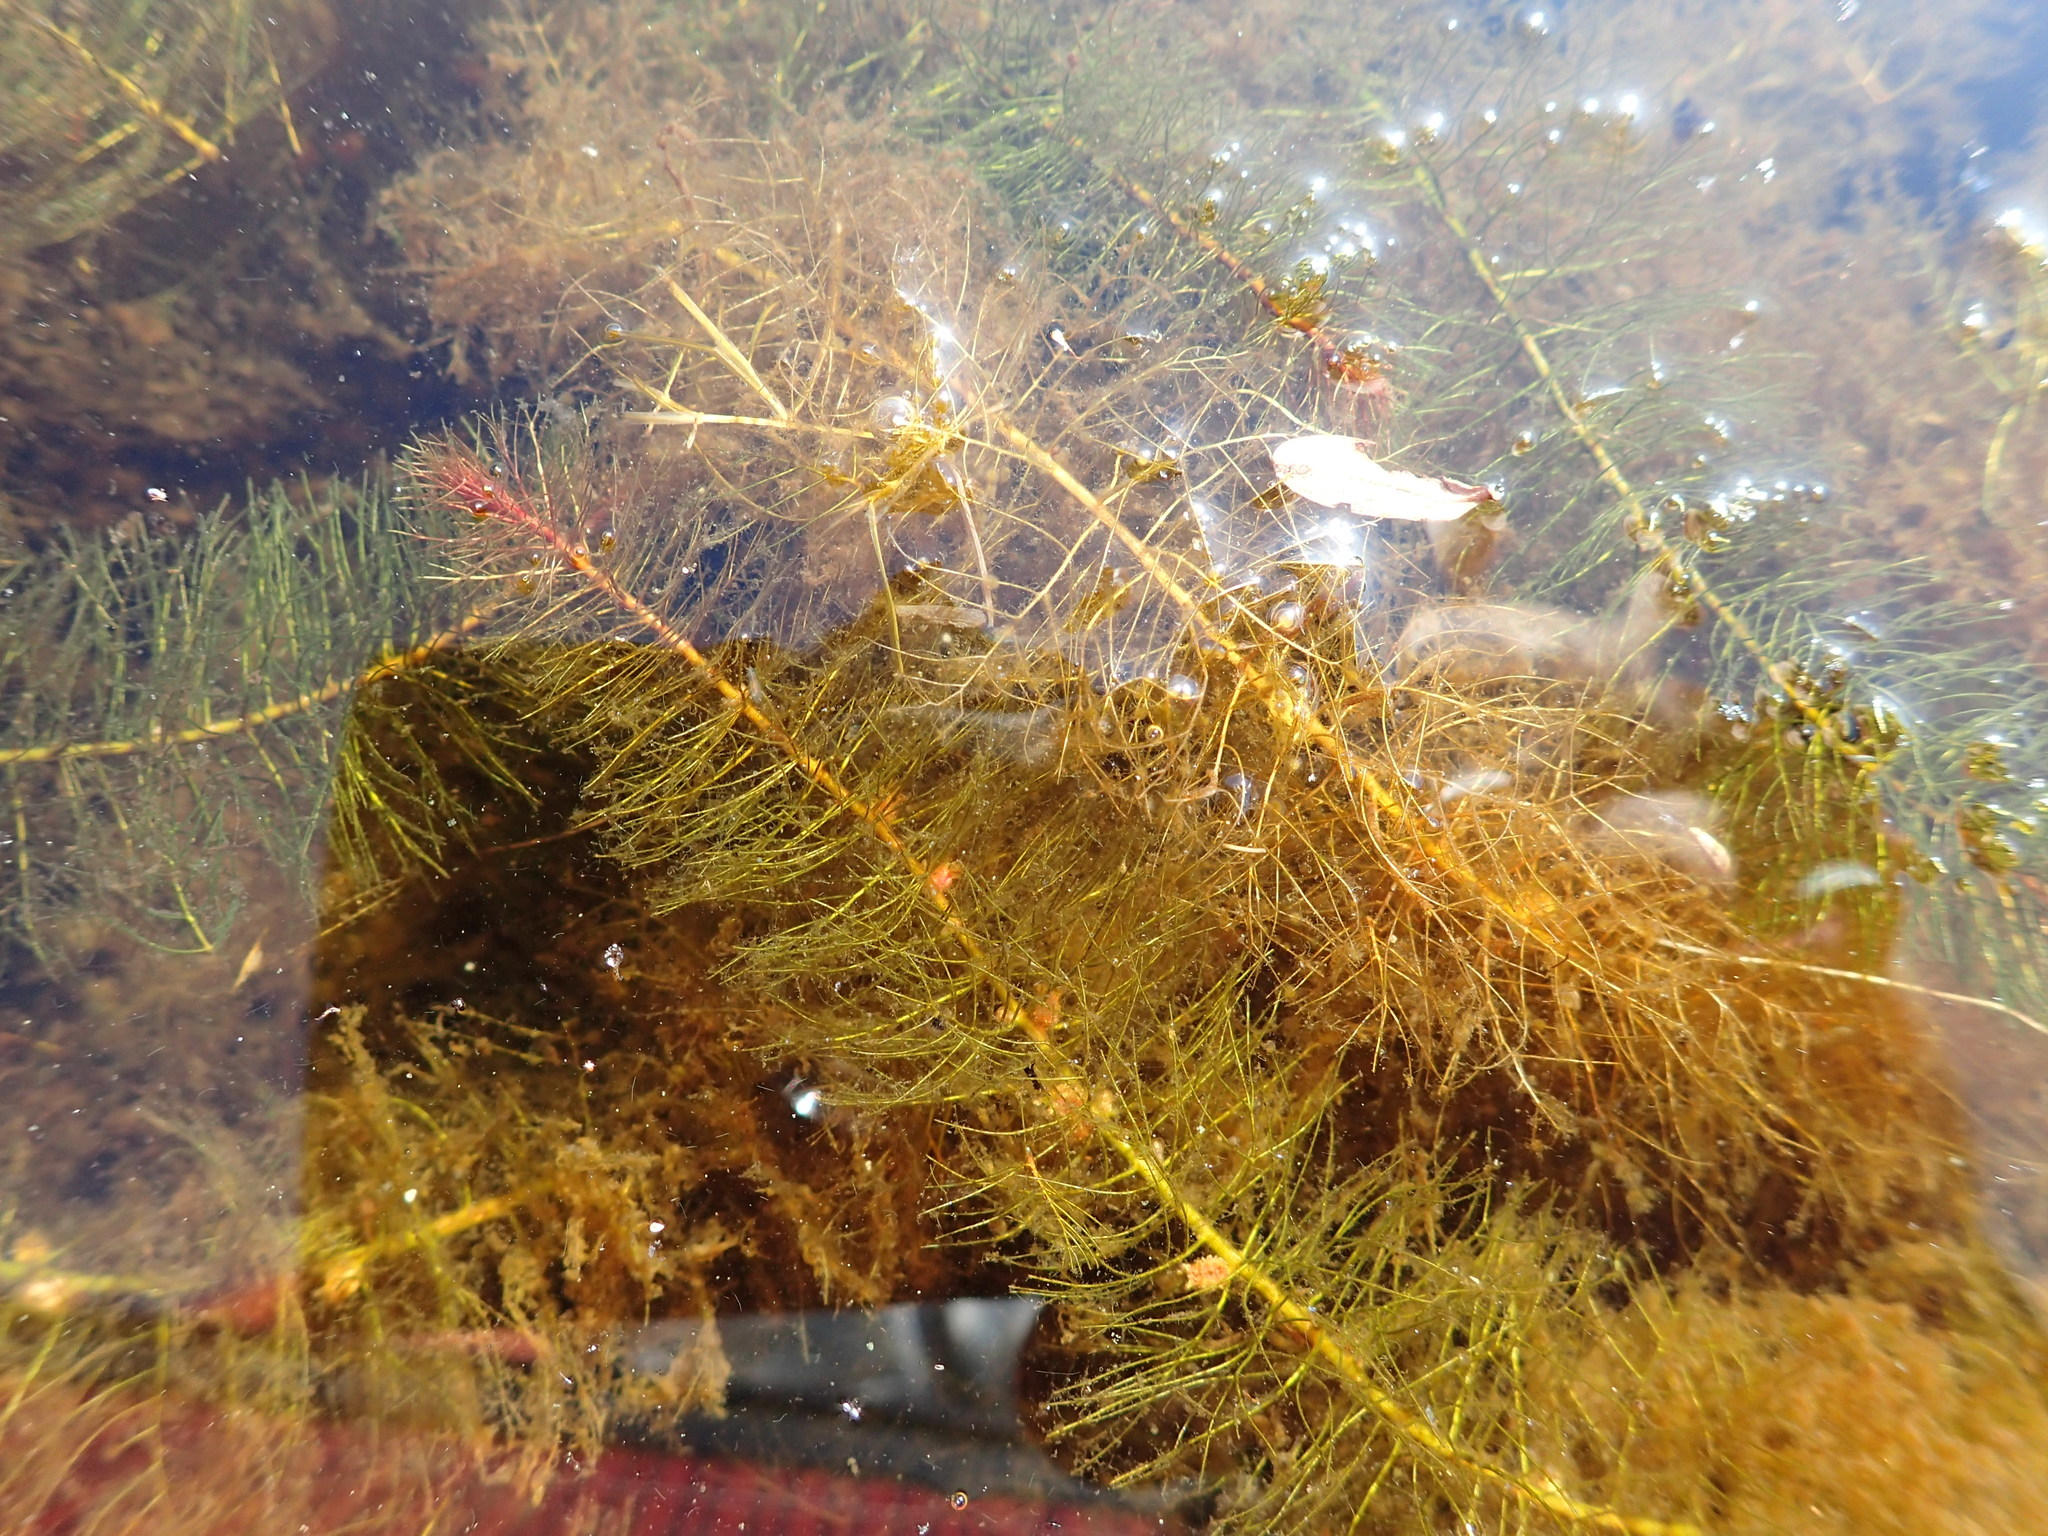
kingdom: Plantae
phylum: Tracheophyta
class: Magnoliopsida
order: Saxifragales
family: Haloragaceae
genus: Myriophyllum
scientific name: Myriophyllum farwellii
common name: Farwell's water-milfoil
